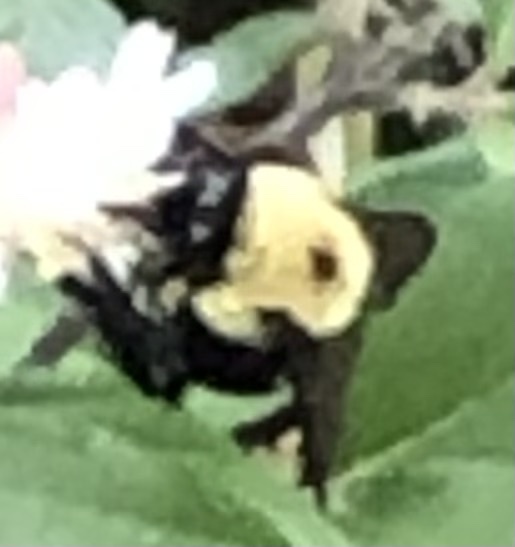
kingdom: Animalia
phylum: Arthropoda
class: Insecta
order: Hymenoptera
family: Apidae
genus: Bombus
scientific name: Bombus griseocollis
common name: Brown-belted bumble bee
